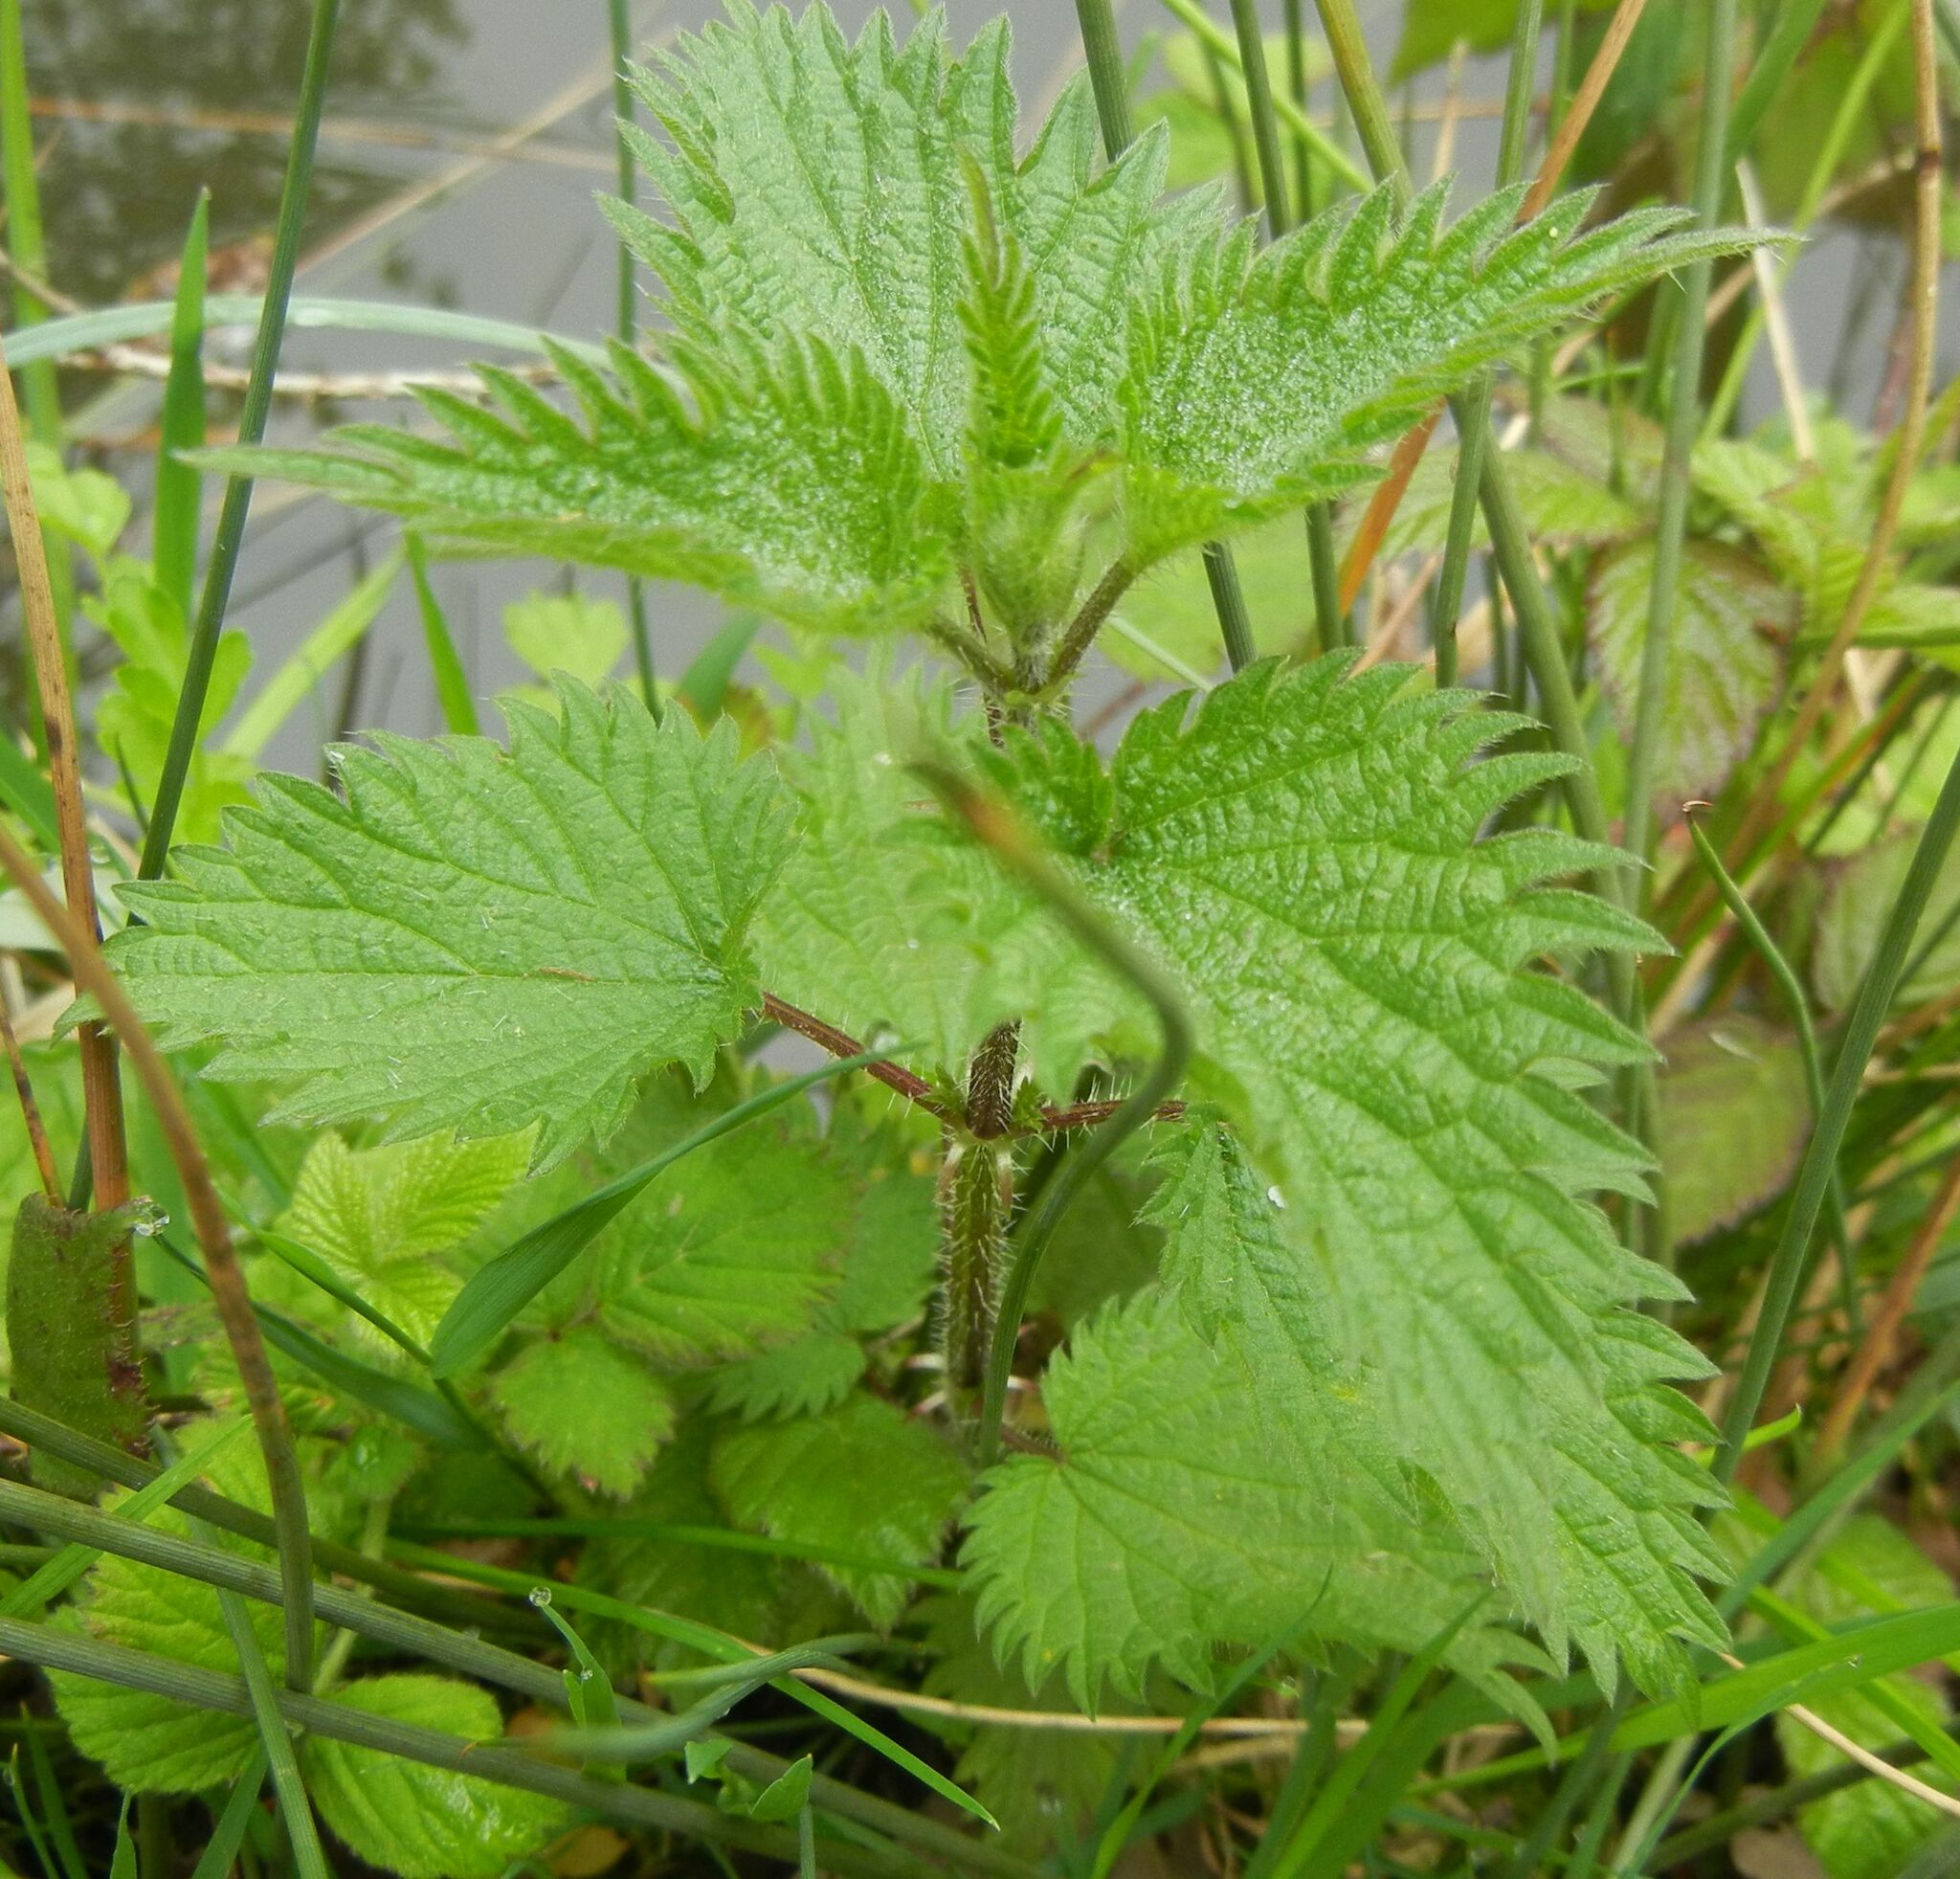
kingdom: Plantae
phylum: Tracheophyta
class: Magnoliopsida
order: Rosales
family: Urticaceae
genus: Urtica
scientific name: Urtica dioica
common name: Common nettle
